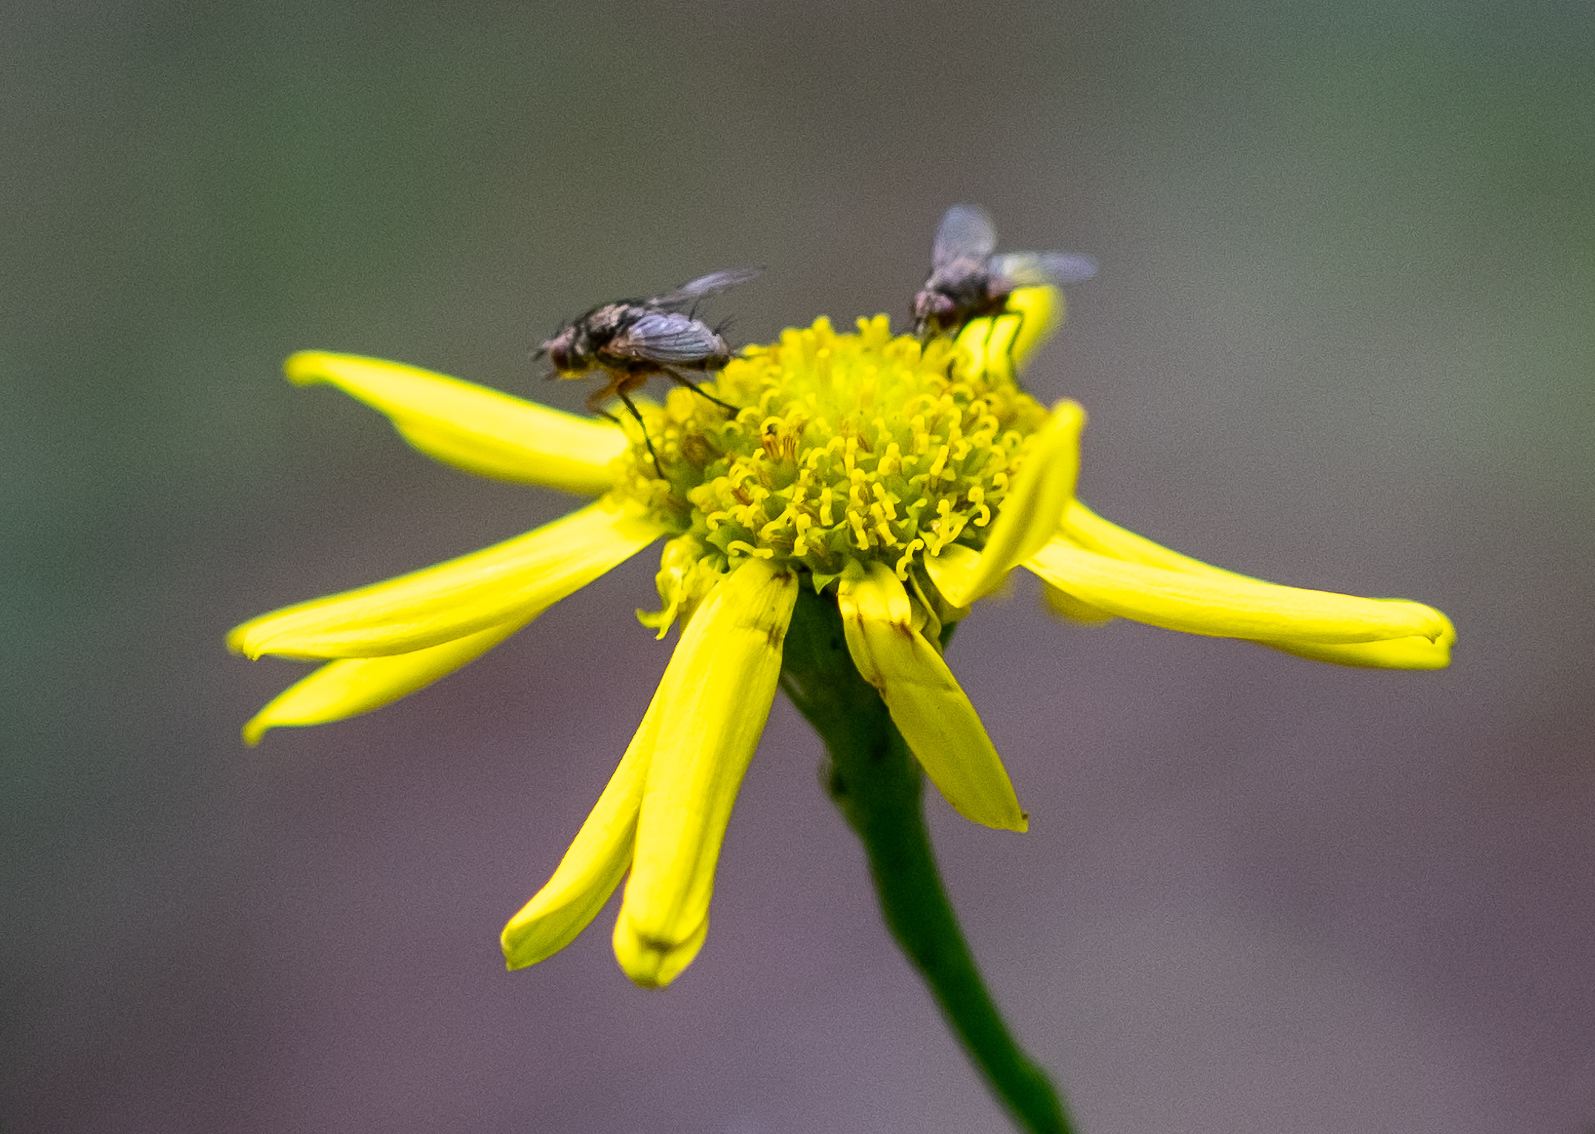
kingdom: Animalia
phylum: Arthropoda
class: Insecta
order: Diptera
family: Tachinidae
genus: Siphona
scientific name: Siphona
